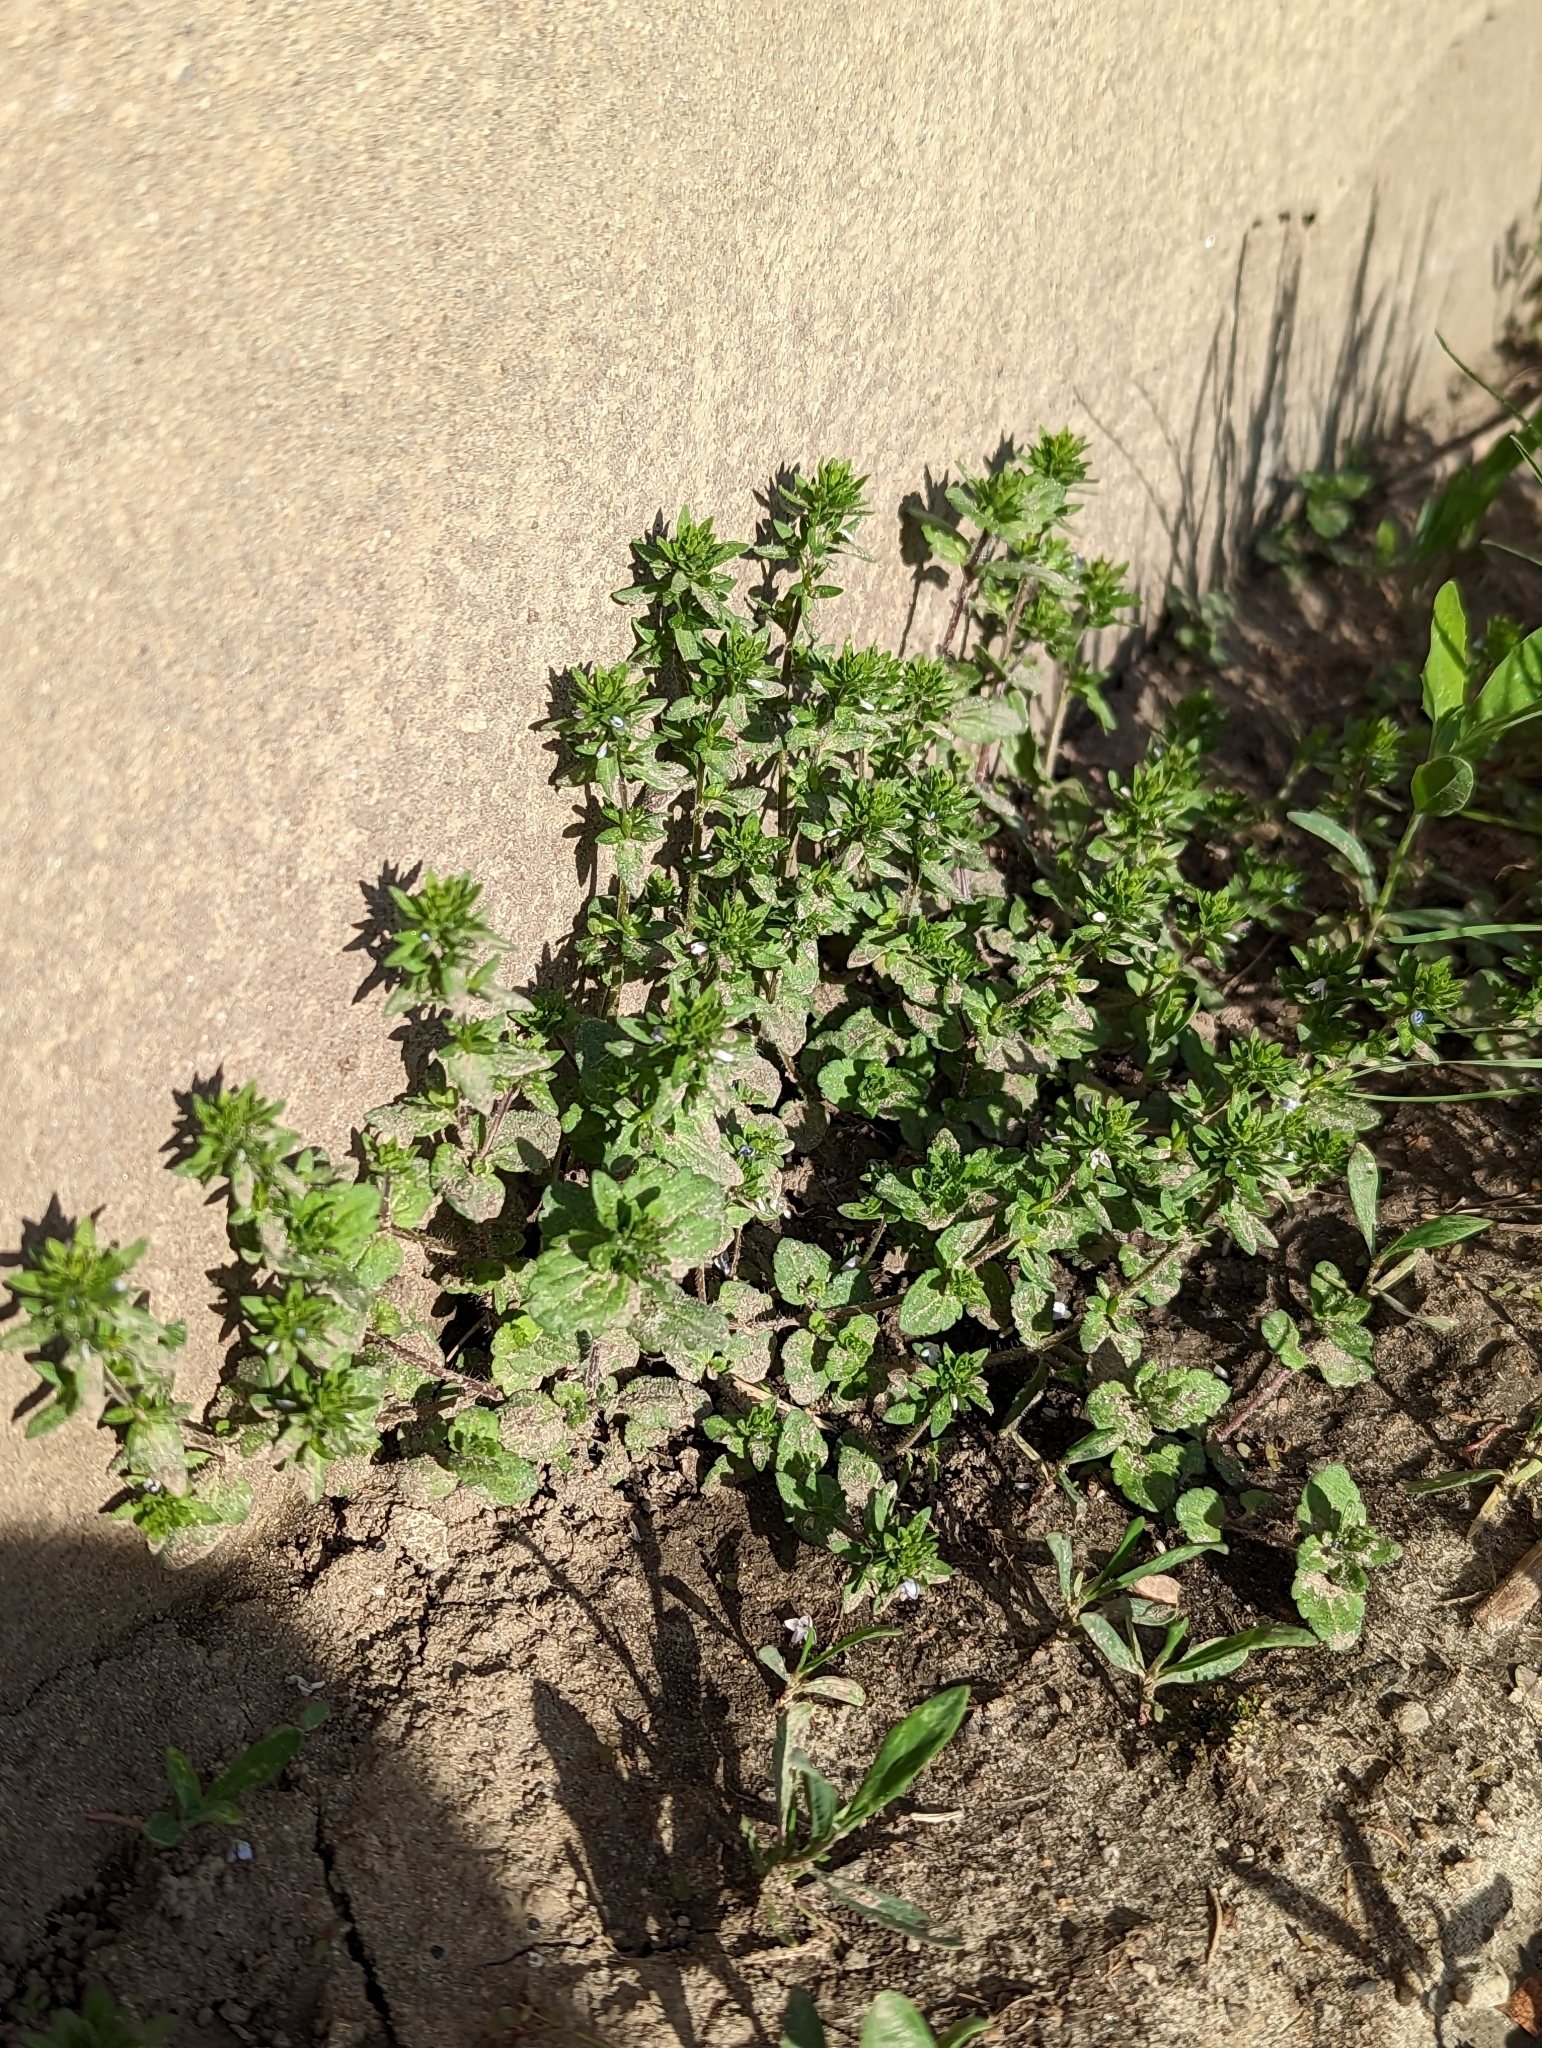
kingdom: Plantae
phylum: Tracheophyta
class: Magnoliopsida
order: Lamiales
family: Plantaginaceae
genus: Veronica
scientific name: Veronica arvensis
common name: Corn speedwell
